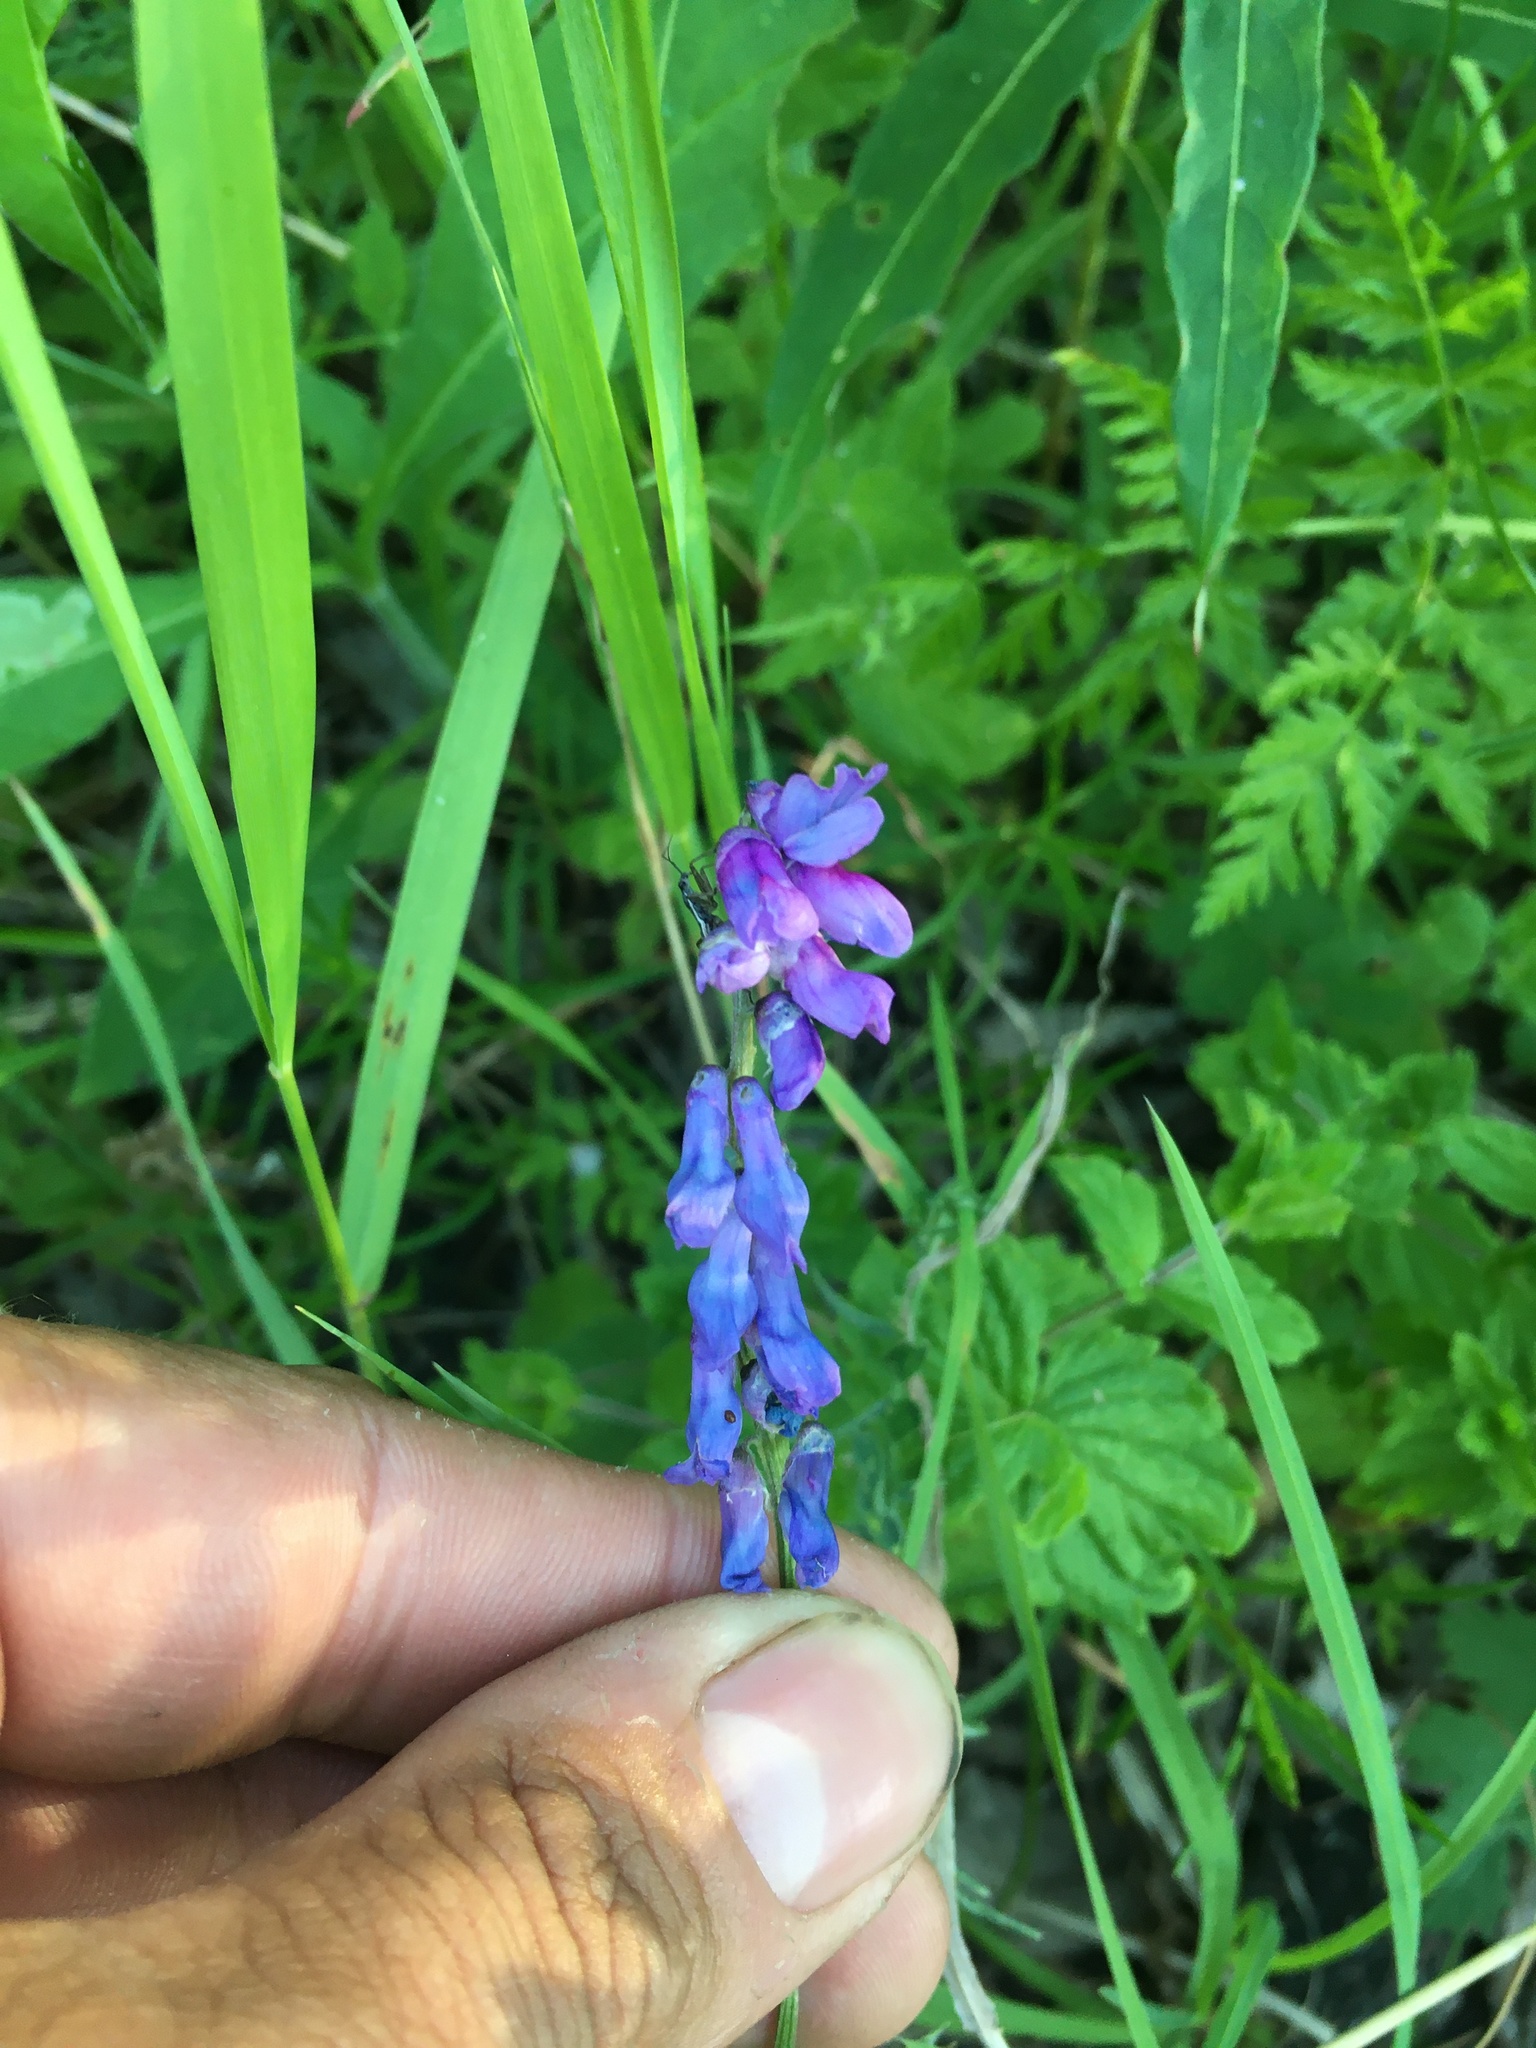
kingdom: Plantae
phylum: Tracheophyta
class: Magnoliopsida
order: Fabales
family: Fabaceae
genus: Vicia
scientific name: Vicia cracca
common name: Bird vetch
